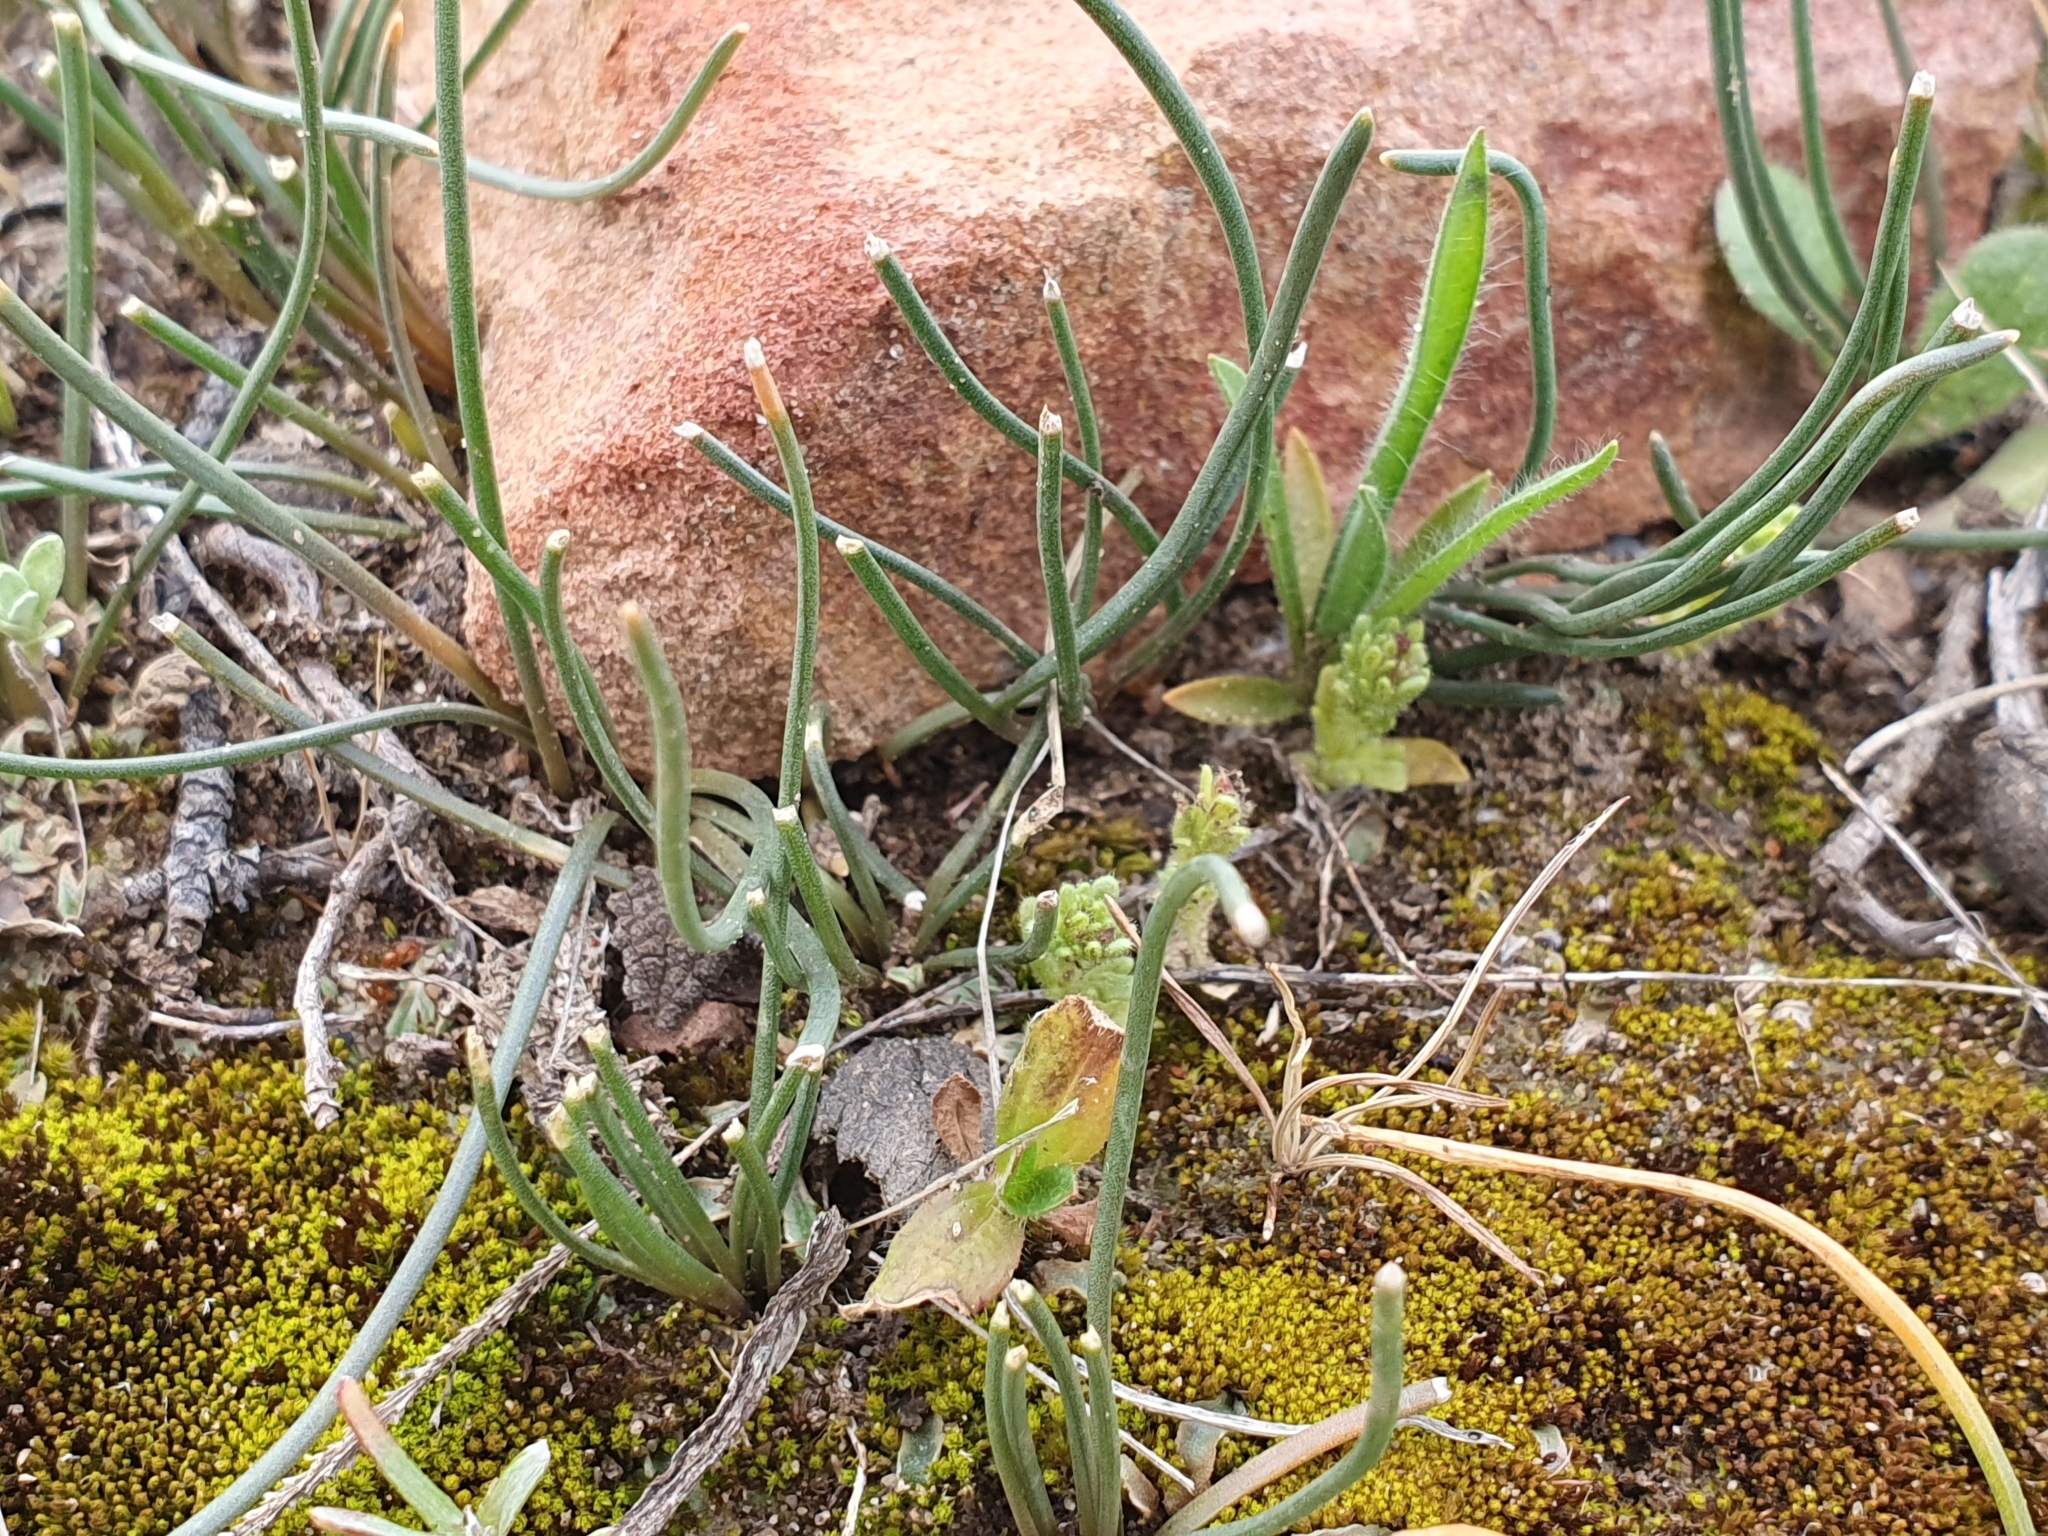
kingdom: Plantae
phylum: Tracheophyta
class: Liliopsida
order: Asparagales
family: Asparagaceae
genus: Drimia
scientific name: Drimia fugax
